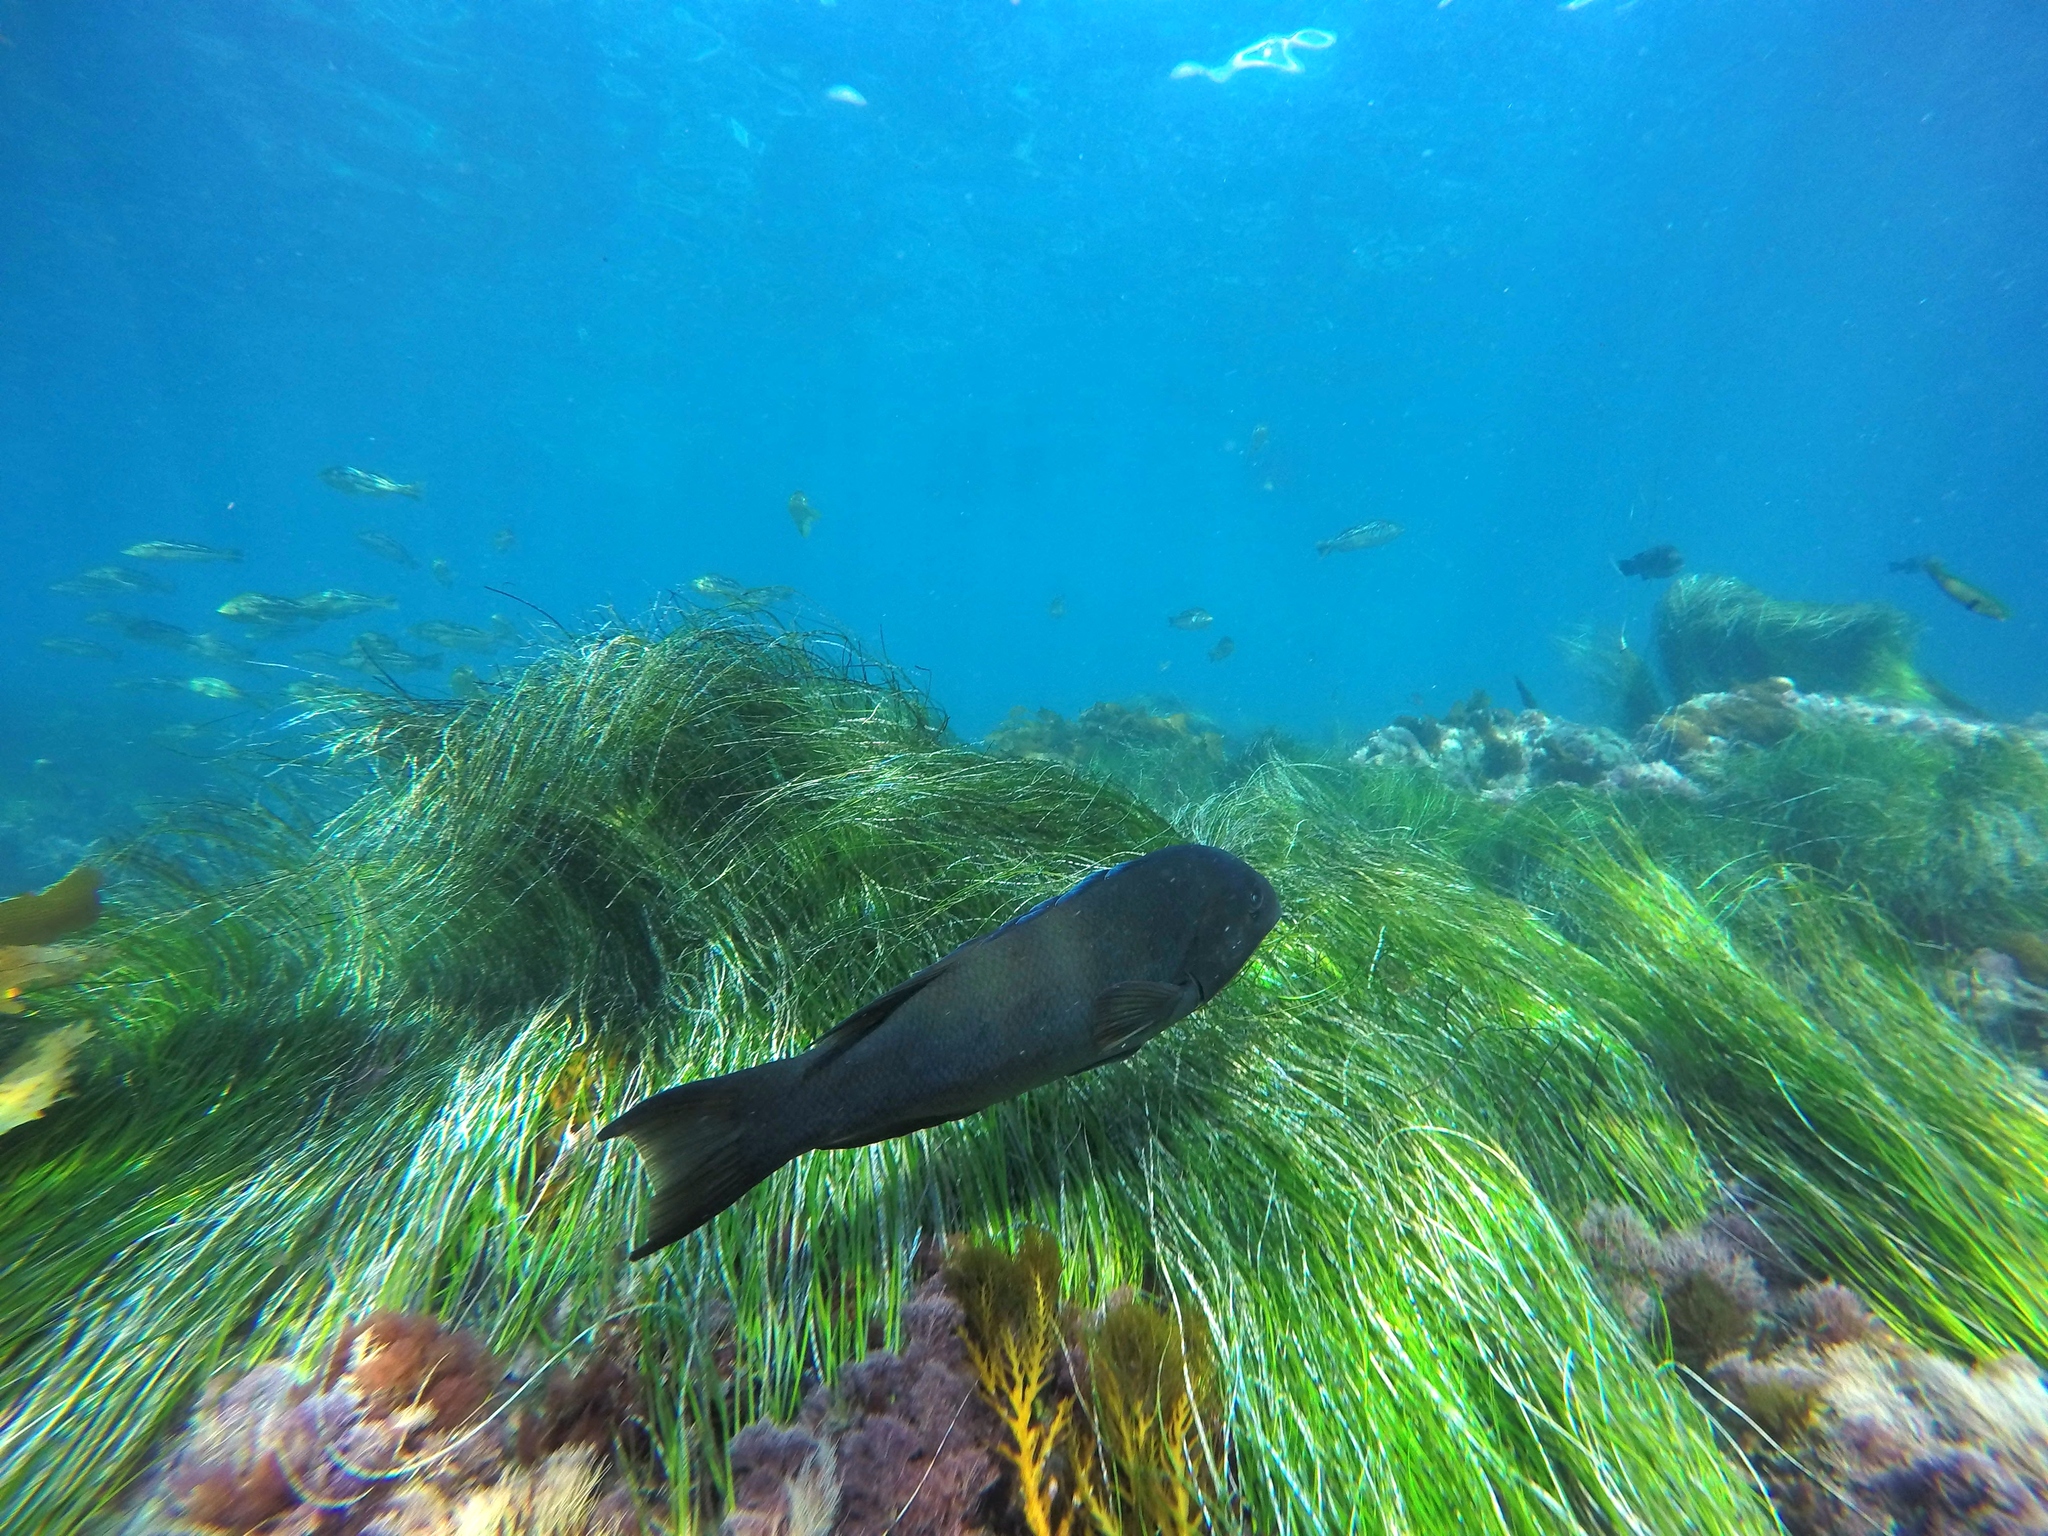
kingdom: Animalia
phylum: Chordata
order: Perciformes
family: Labridae
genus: Semicossyphus
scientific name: Semicossyphus pulcher
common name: California sheephead
